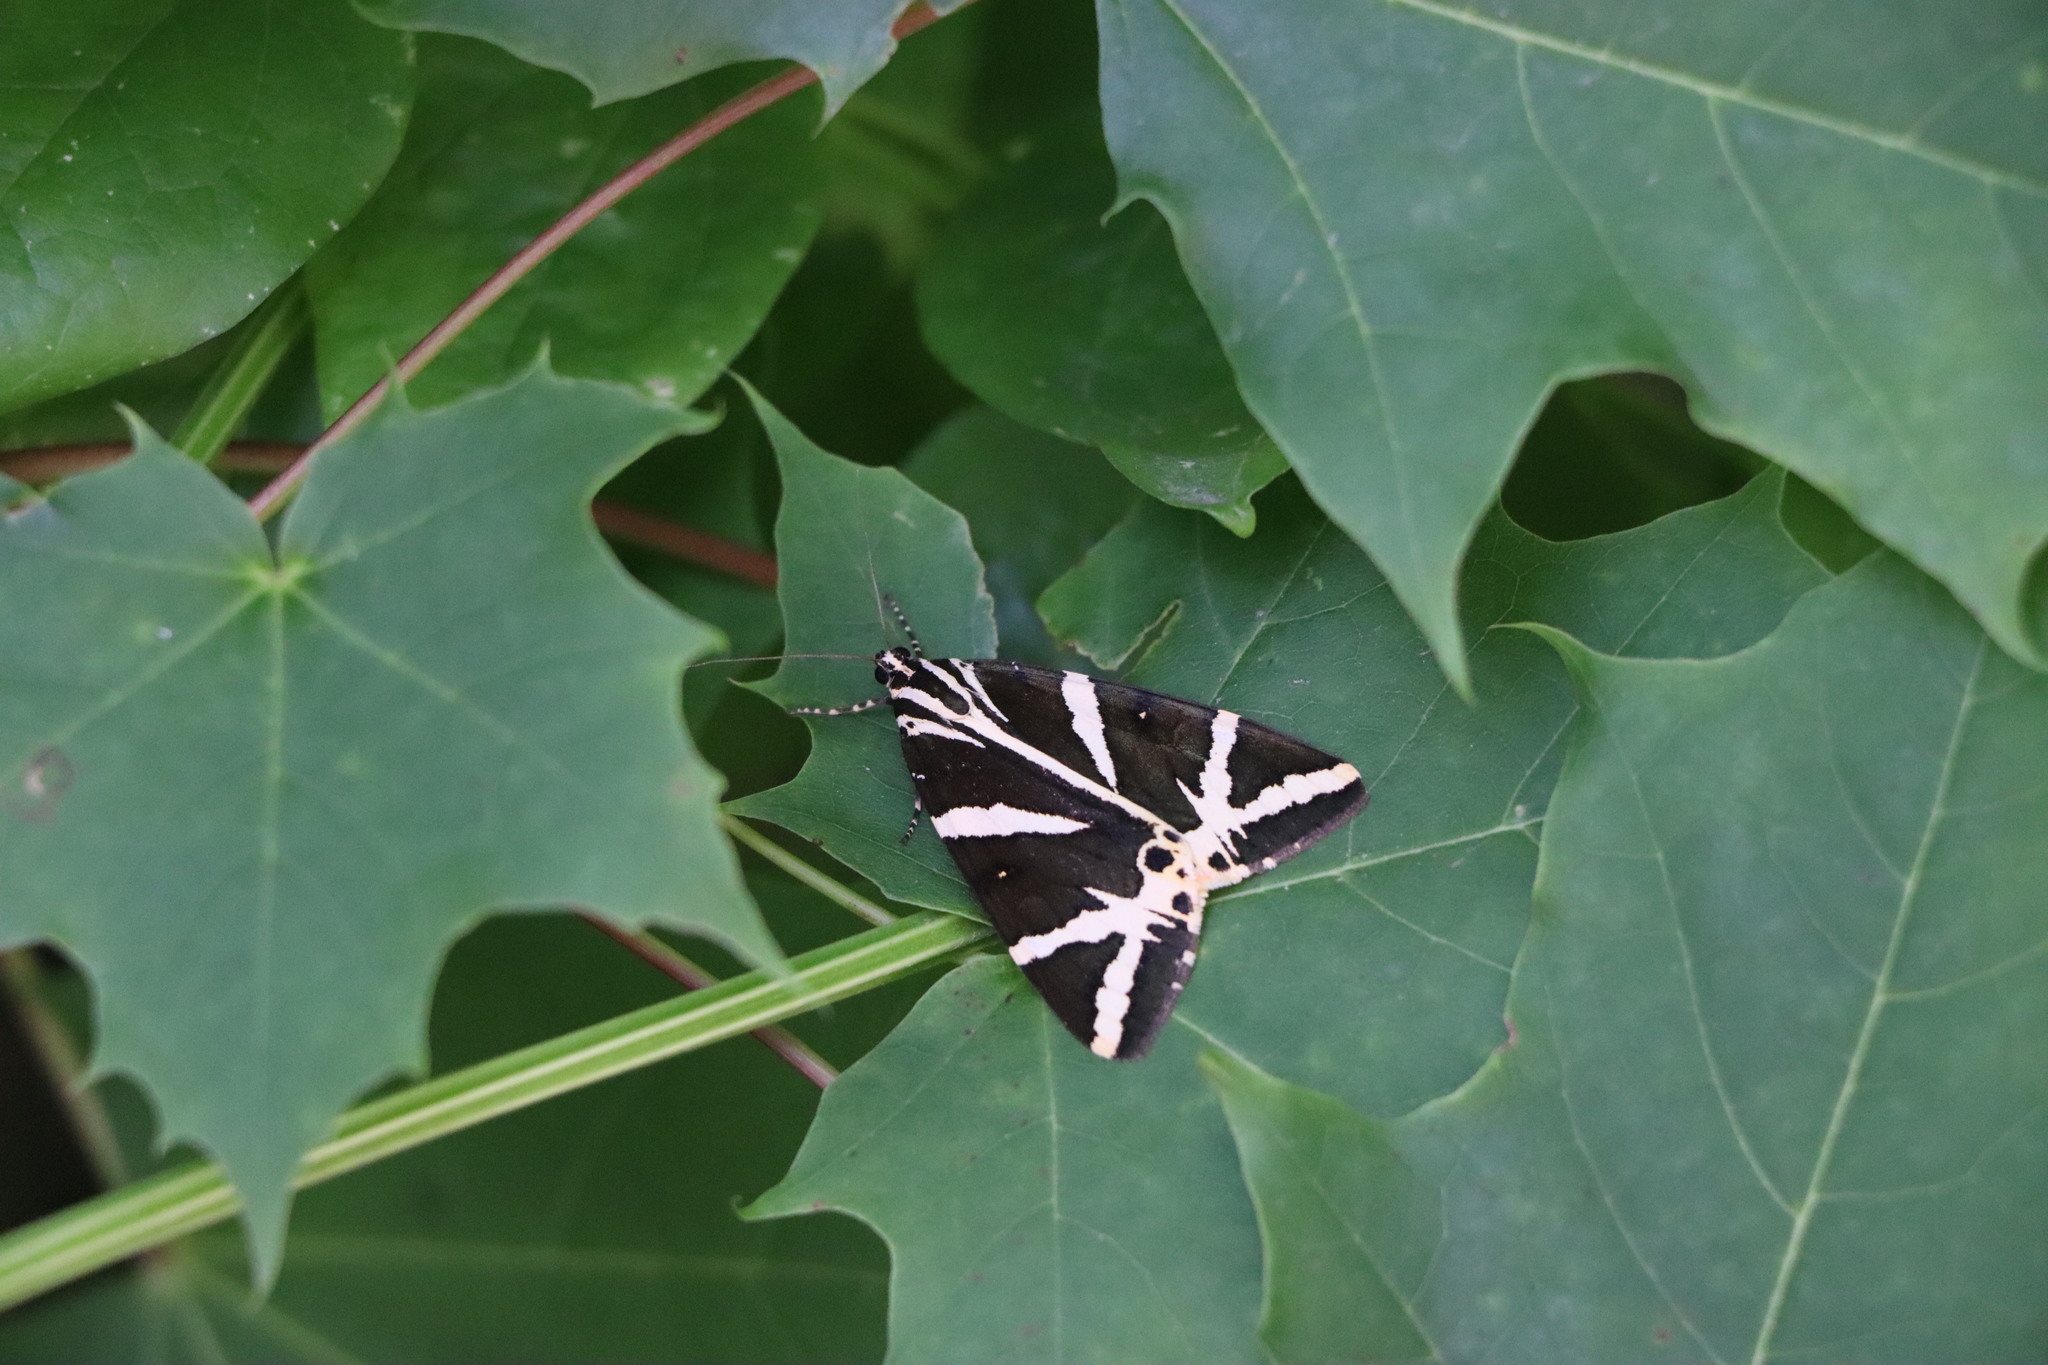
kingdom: Animalia
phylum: Arthropoda
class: Insecta
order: Lepidoptera
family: Erebidae
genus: Euplagia
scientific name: Euplagia quadripunctaria
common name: Jersey tiger
